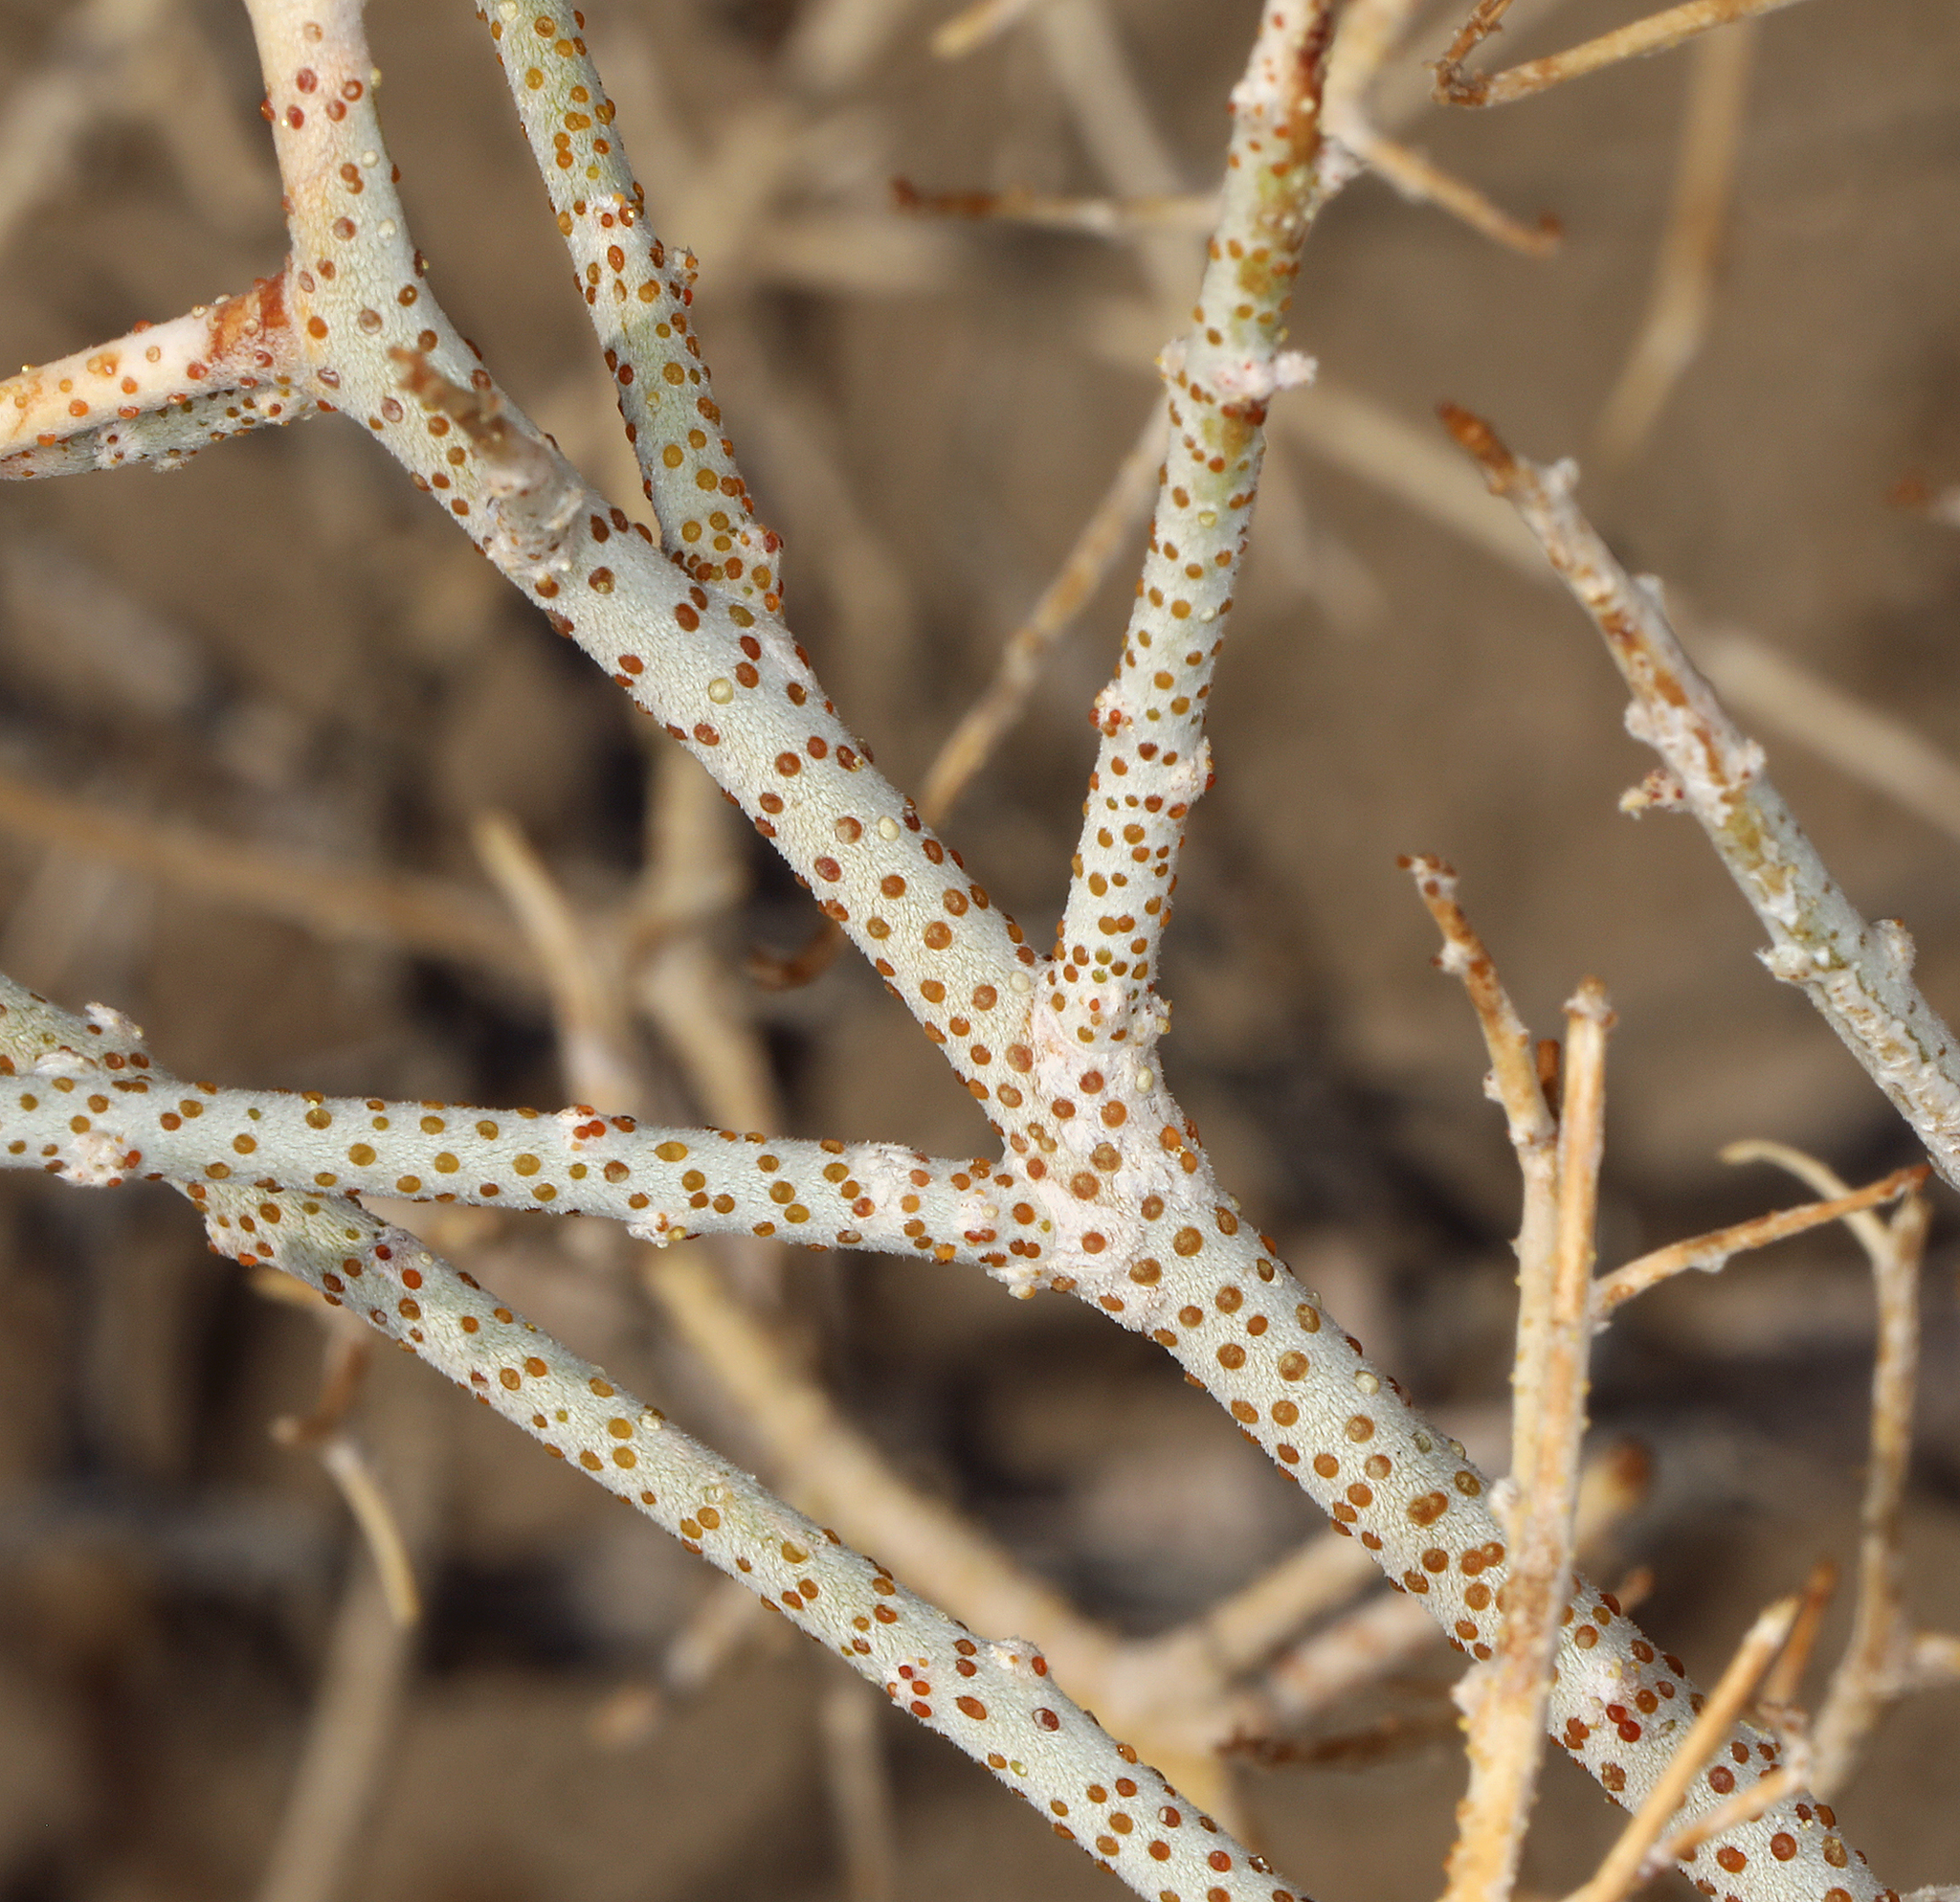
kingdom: Plantae
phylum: Tracheophyta
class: Magnoliopsida
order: Fabales
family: Fabaceae
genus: Psorothamnus
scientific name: Psorothamnus polydenius
